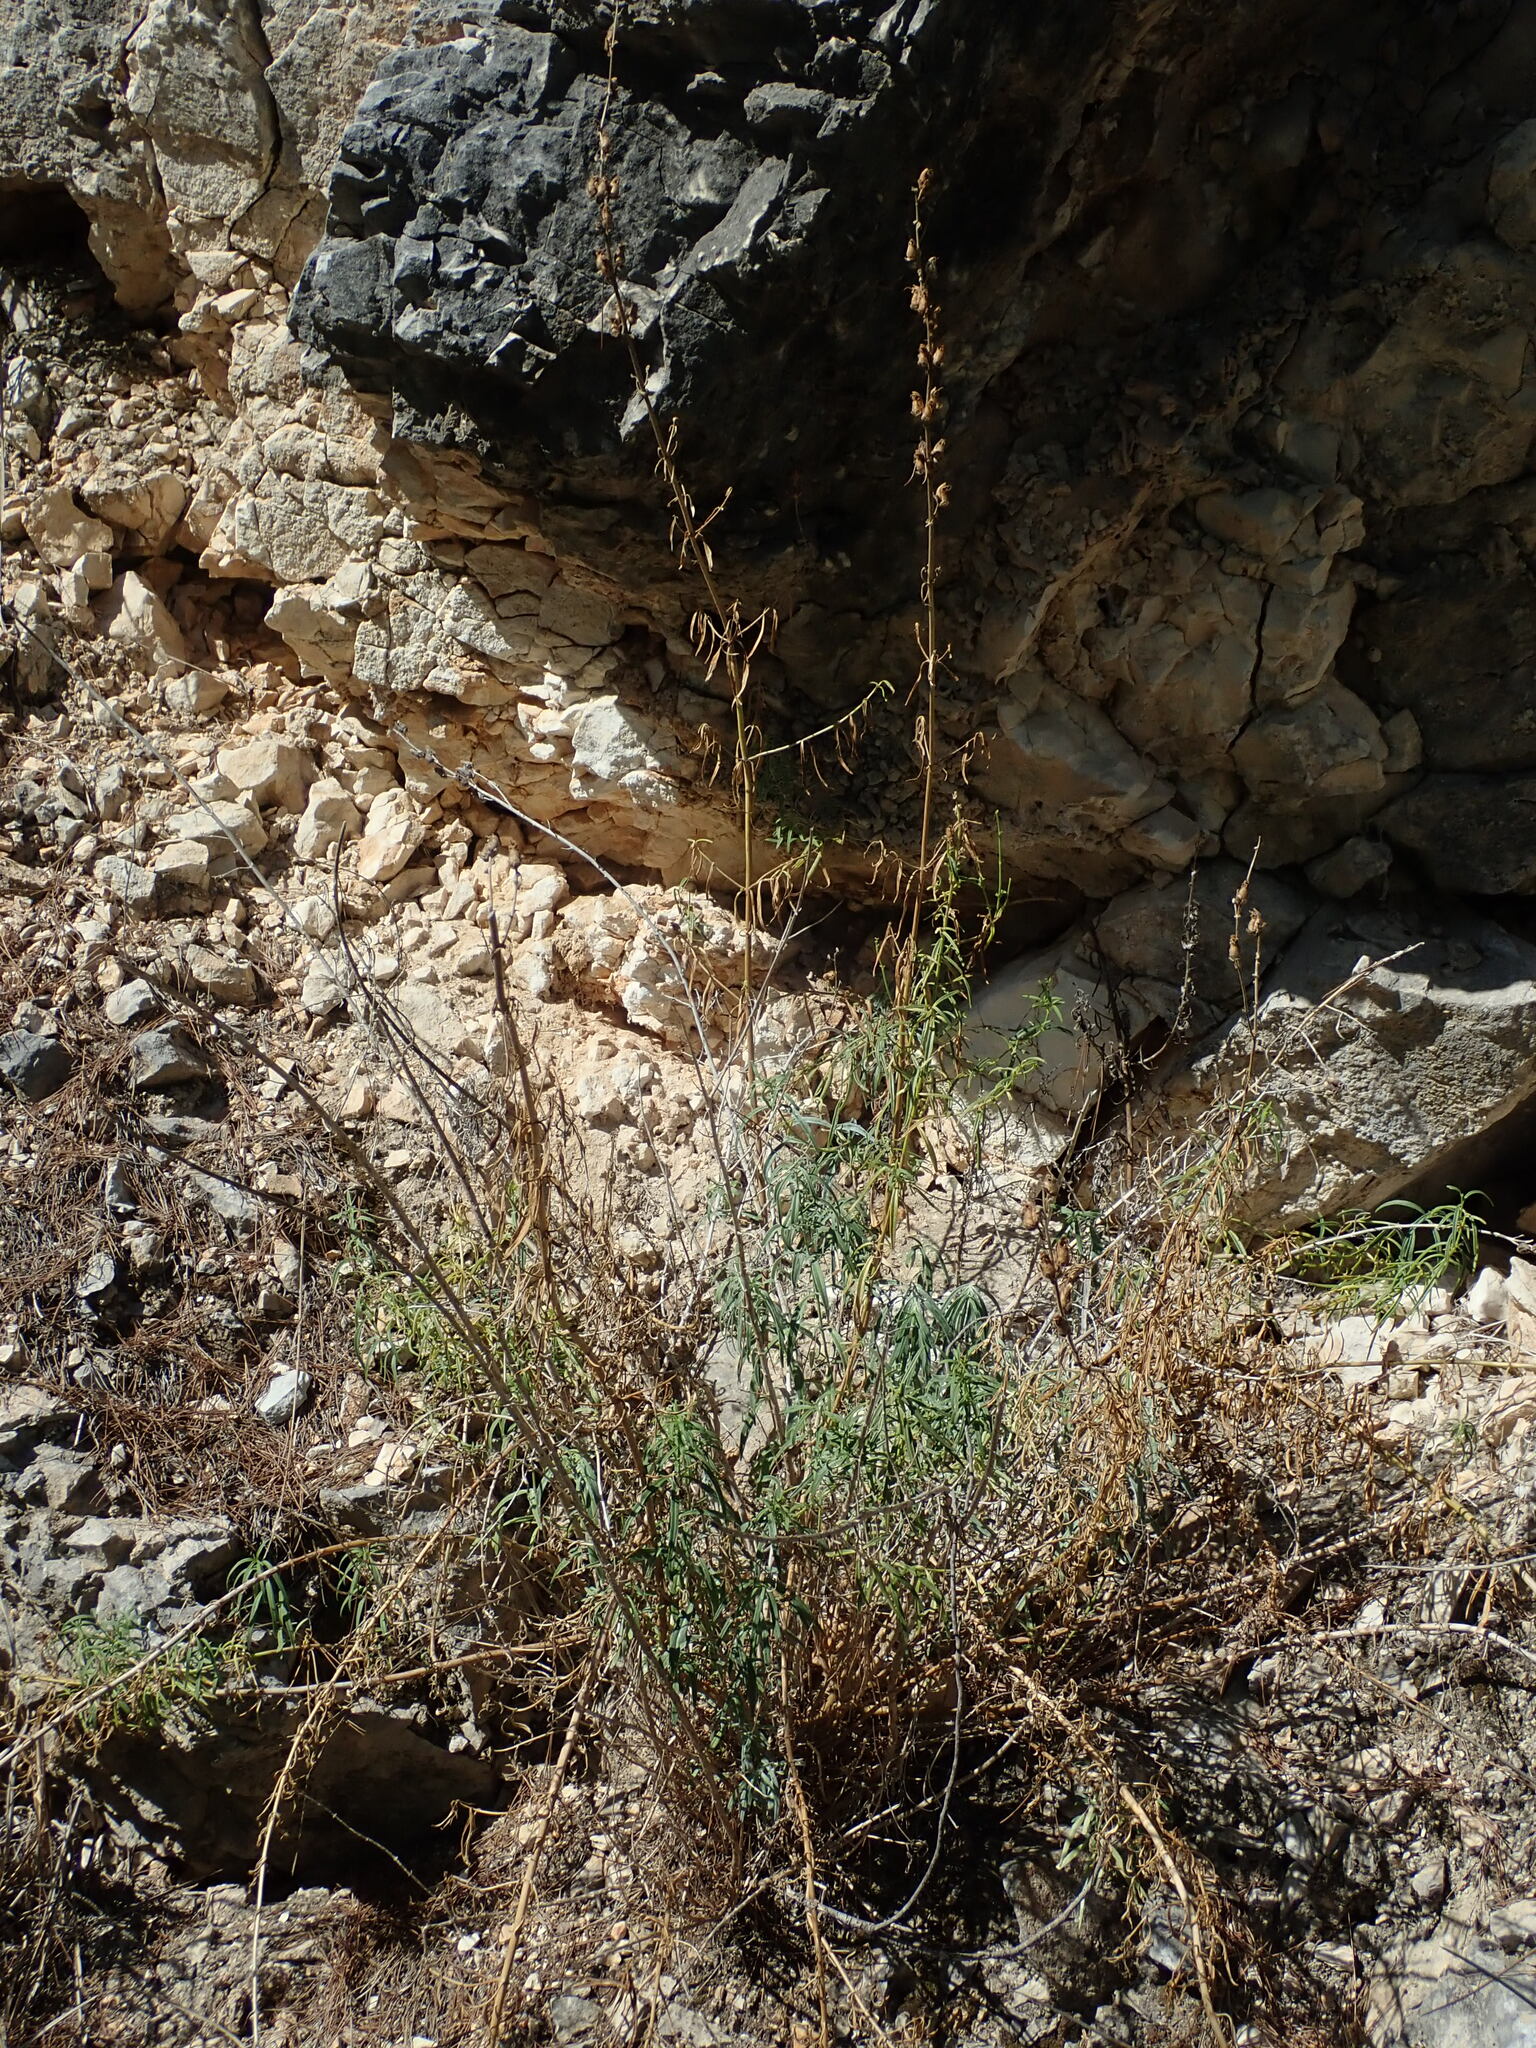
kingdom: Plantae
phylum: Tracheophyta
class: Magnoliopsida
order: Lamiales
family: Plantaginaceae
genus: Antirrhinum
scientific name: Antirrhinum tortuosum
